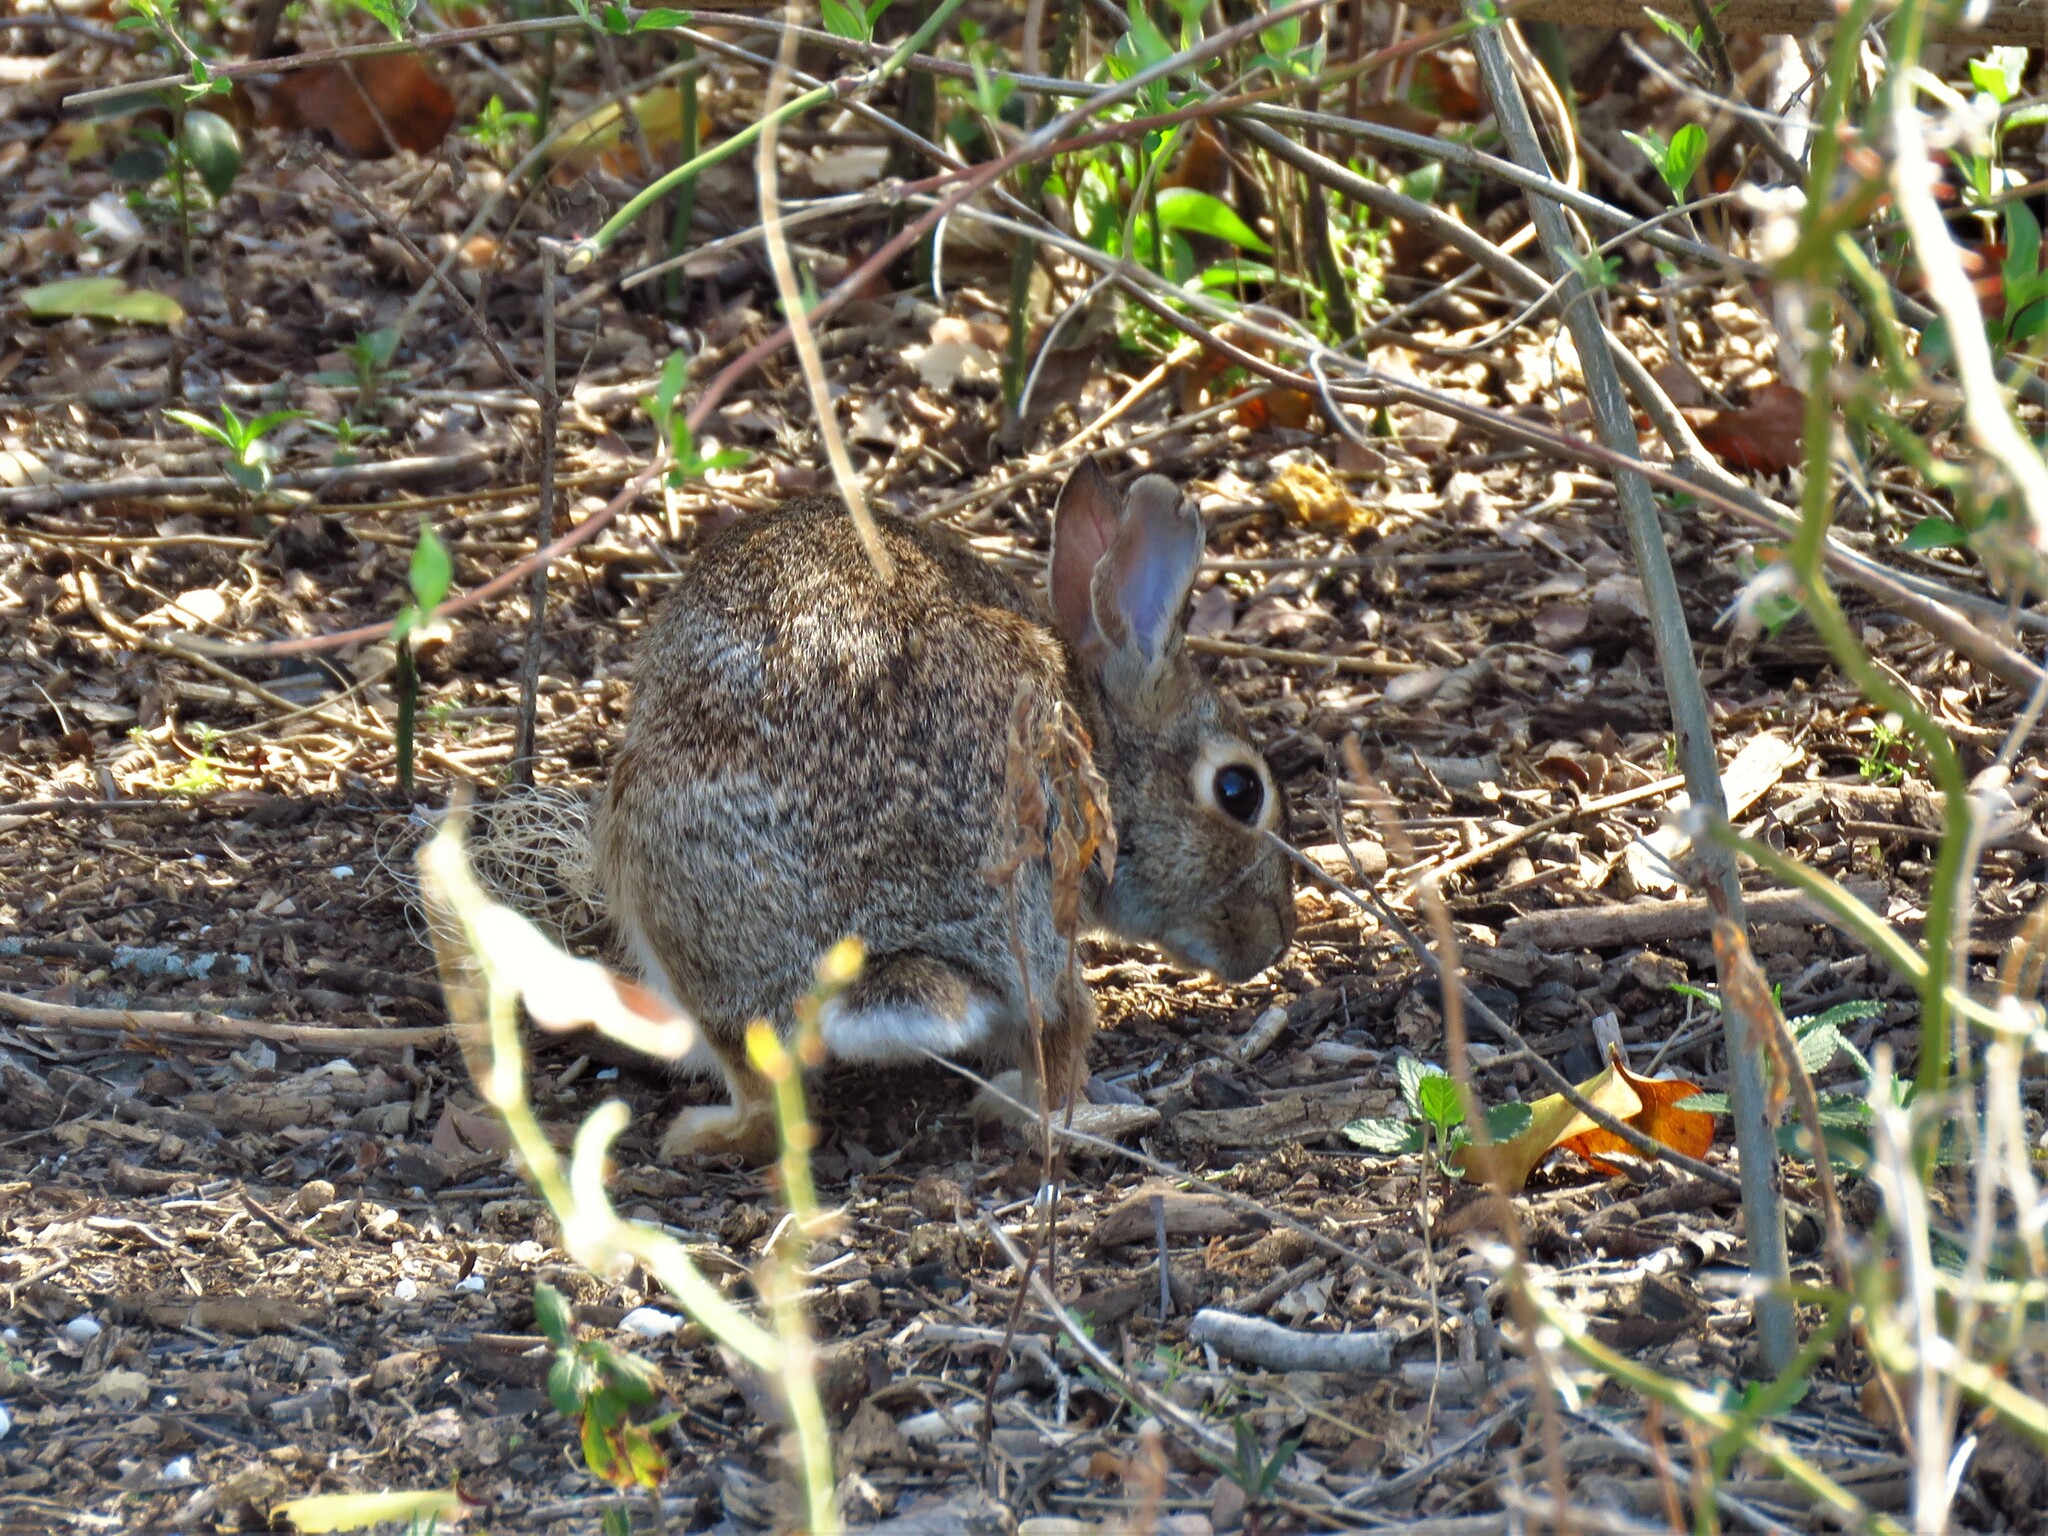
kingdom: Animalia
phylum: Chordata
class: Mammalia
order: Lagomorpha
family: Leporidae
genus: Sylvilagus
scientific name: Sylvilagus floridanus
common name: Eastern cottontail
